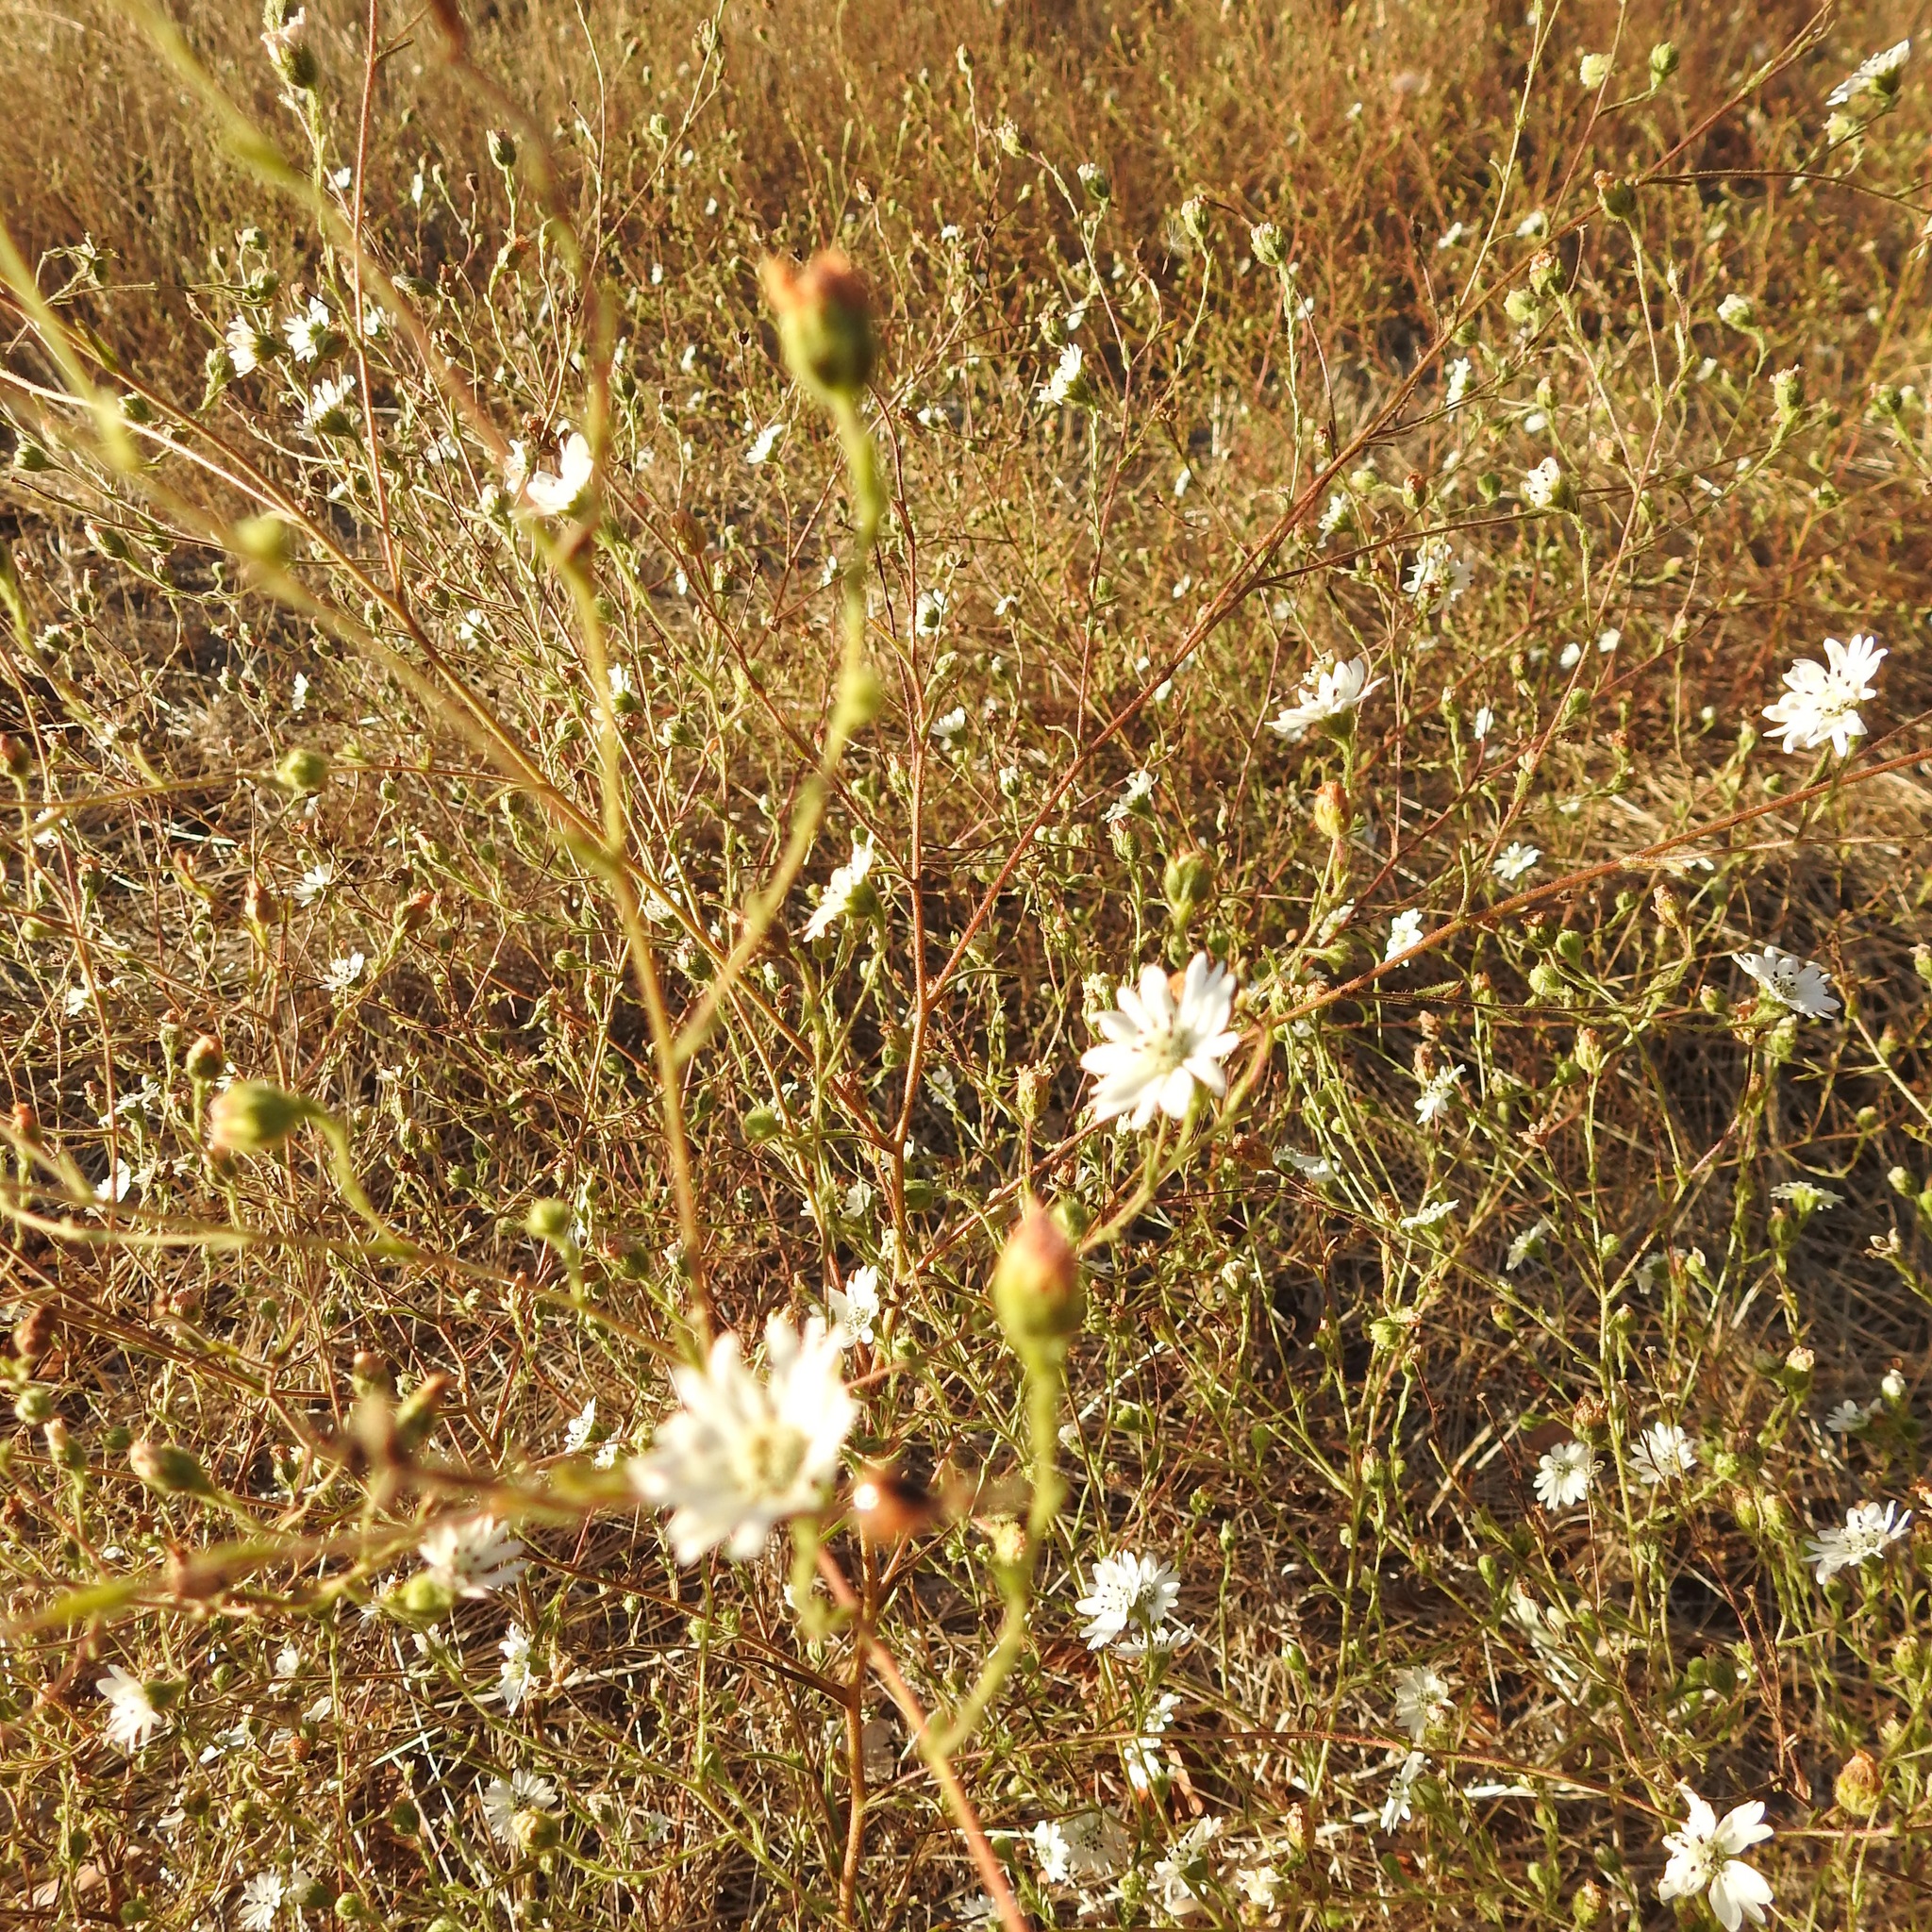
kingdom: Plantae
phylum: Tracheophyta
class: Magnoliopsida
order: Asterales
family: Asteraceae
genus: Hemizonia
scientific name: Hemizonia congesta
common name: Hayfield tarweed
